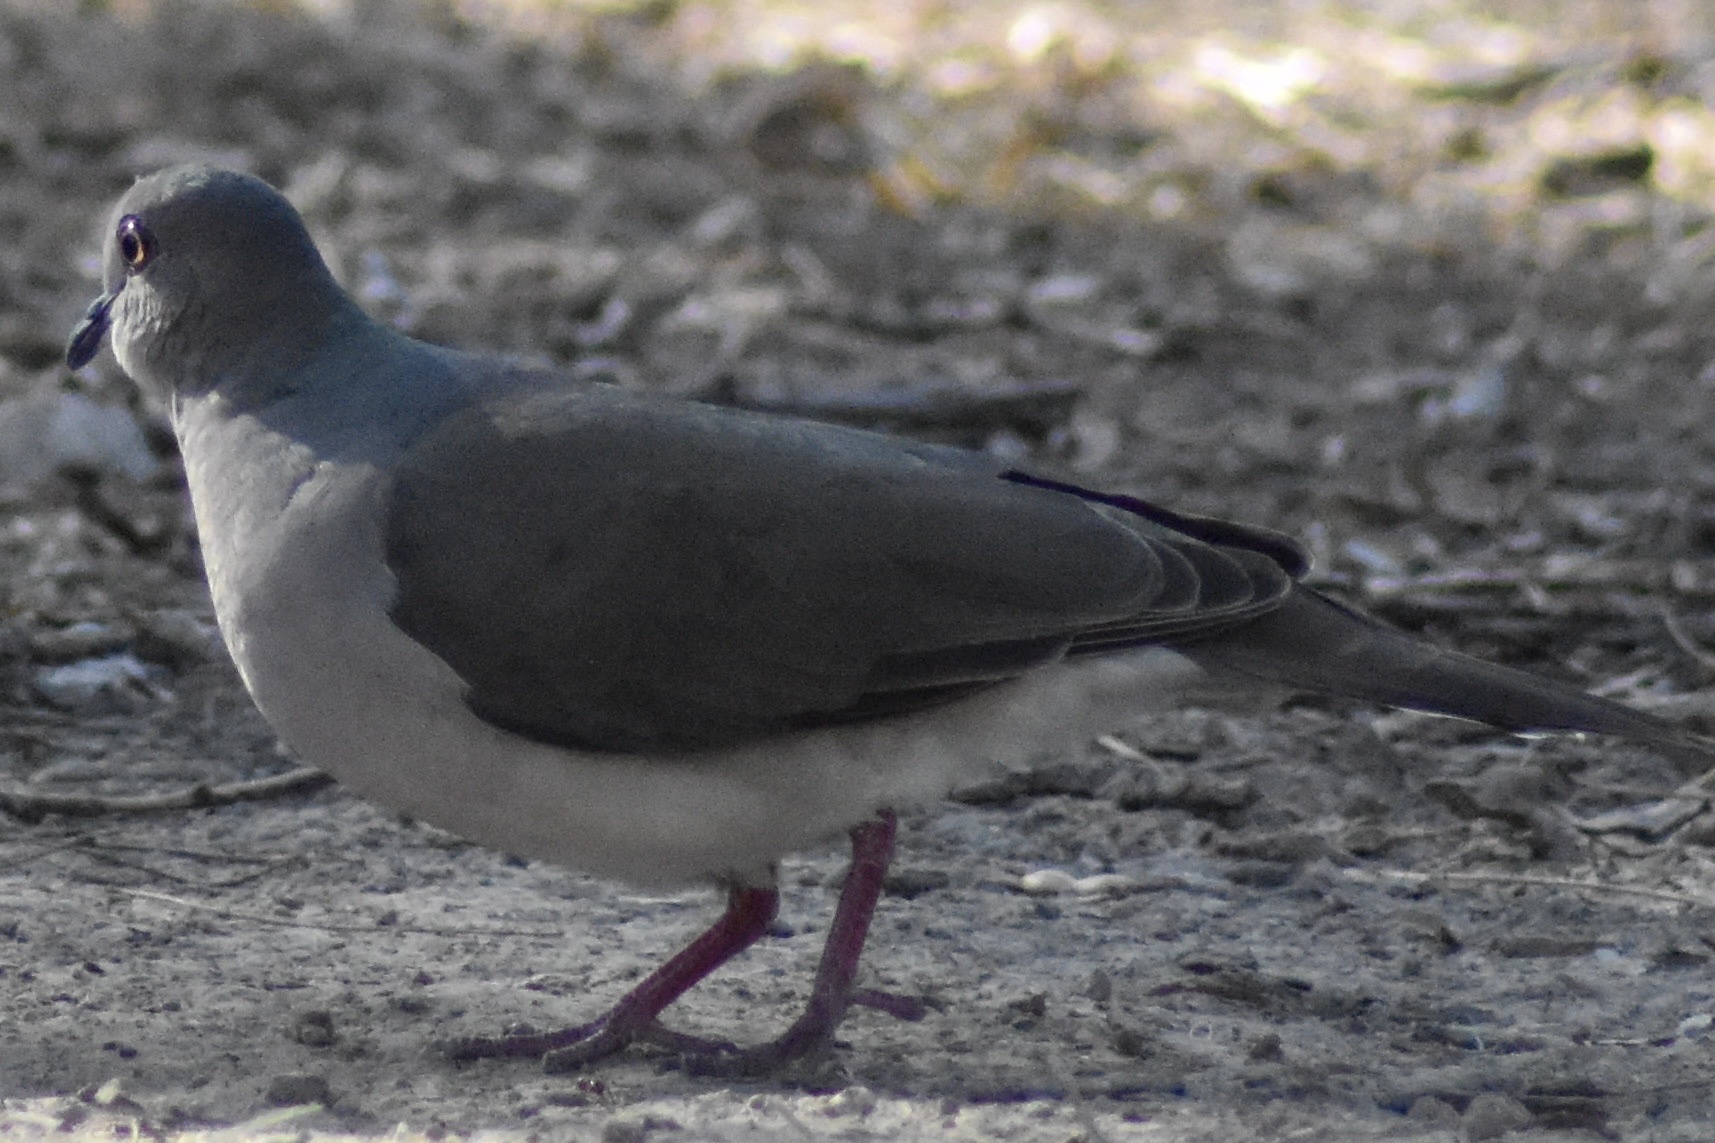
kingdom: Animalia
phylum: Chordata
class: Aves
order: Columbiformes
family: Columbidae
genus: Leptotila
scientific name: Leptotila verreauxi
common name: White-tipped dove
